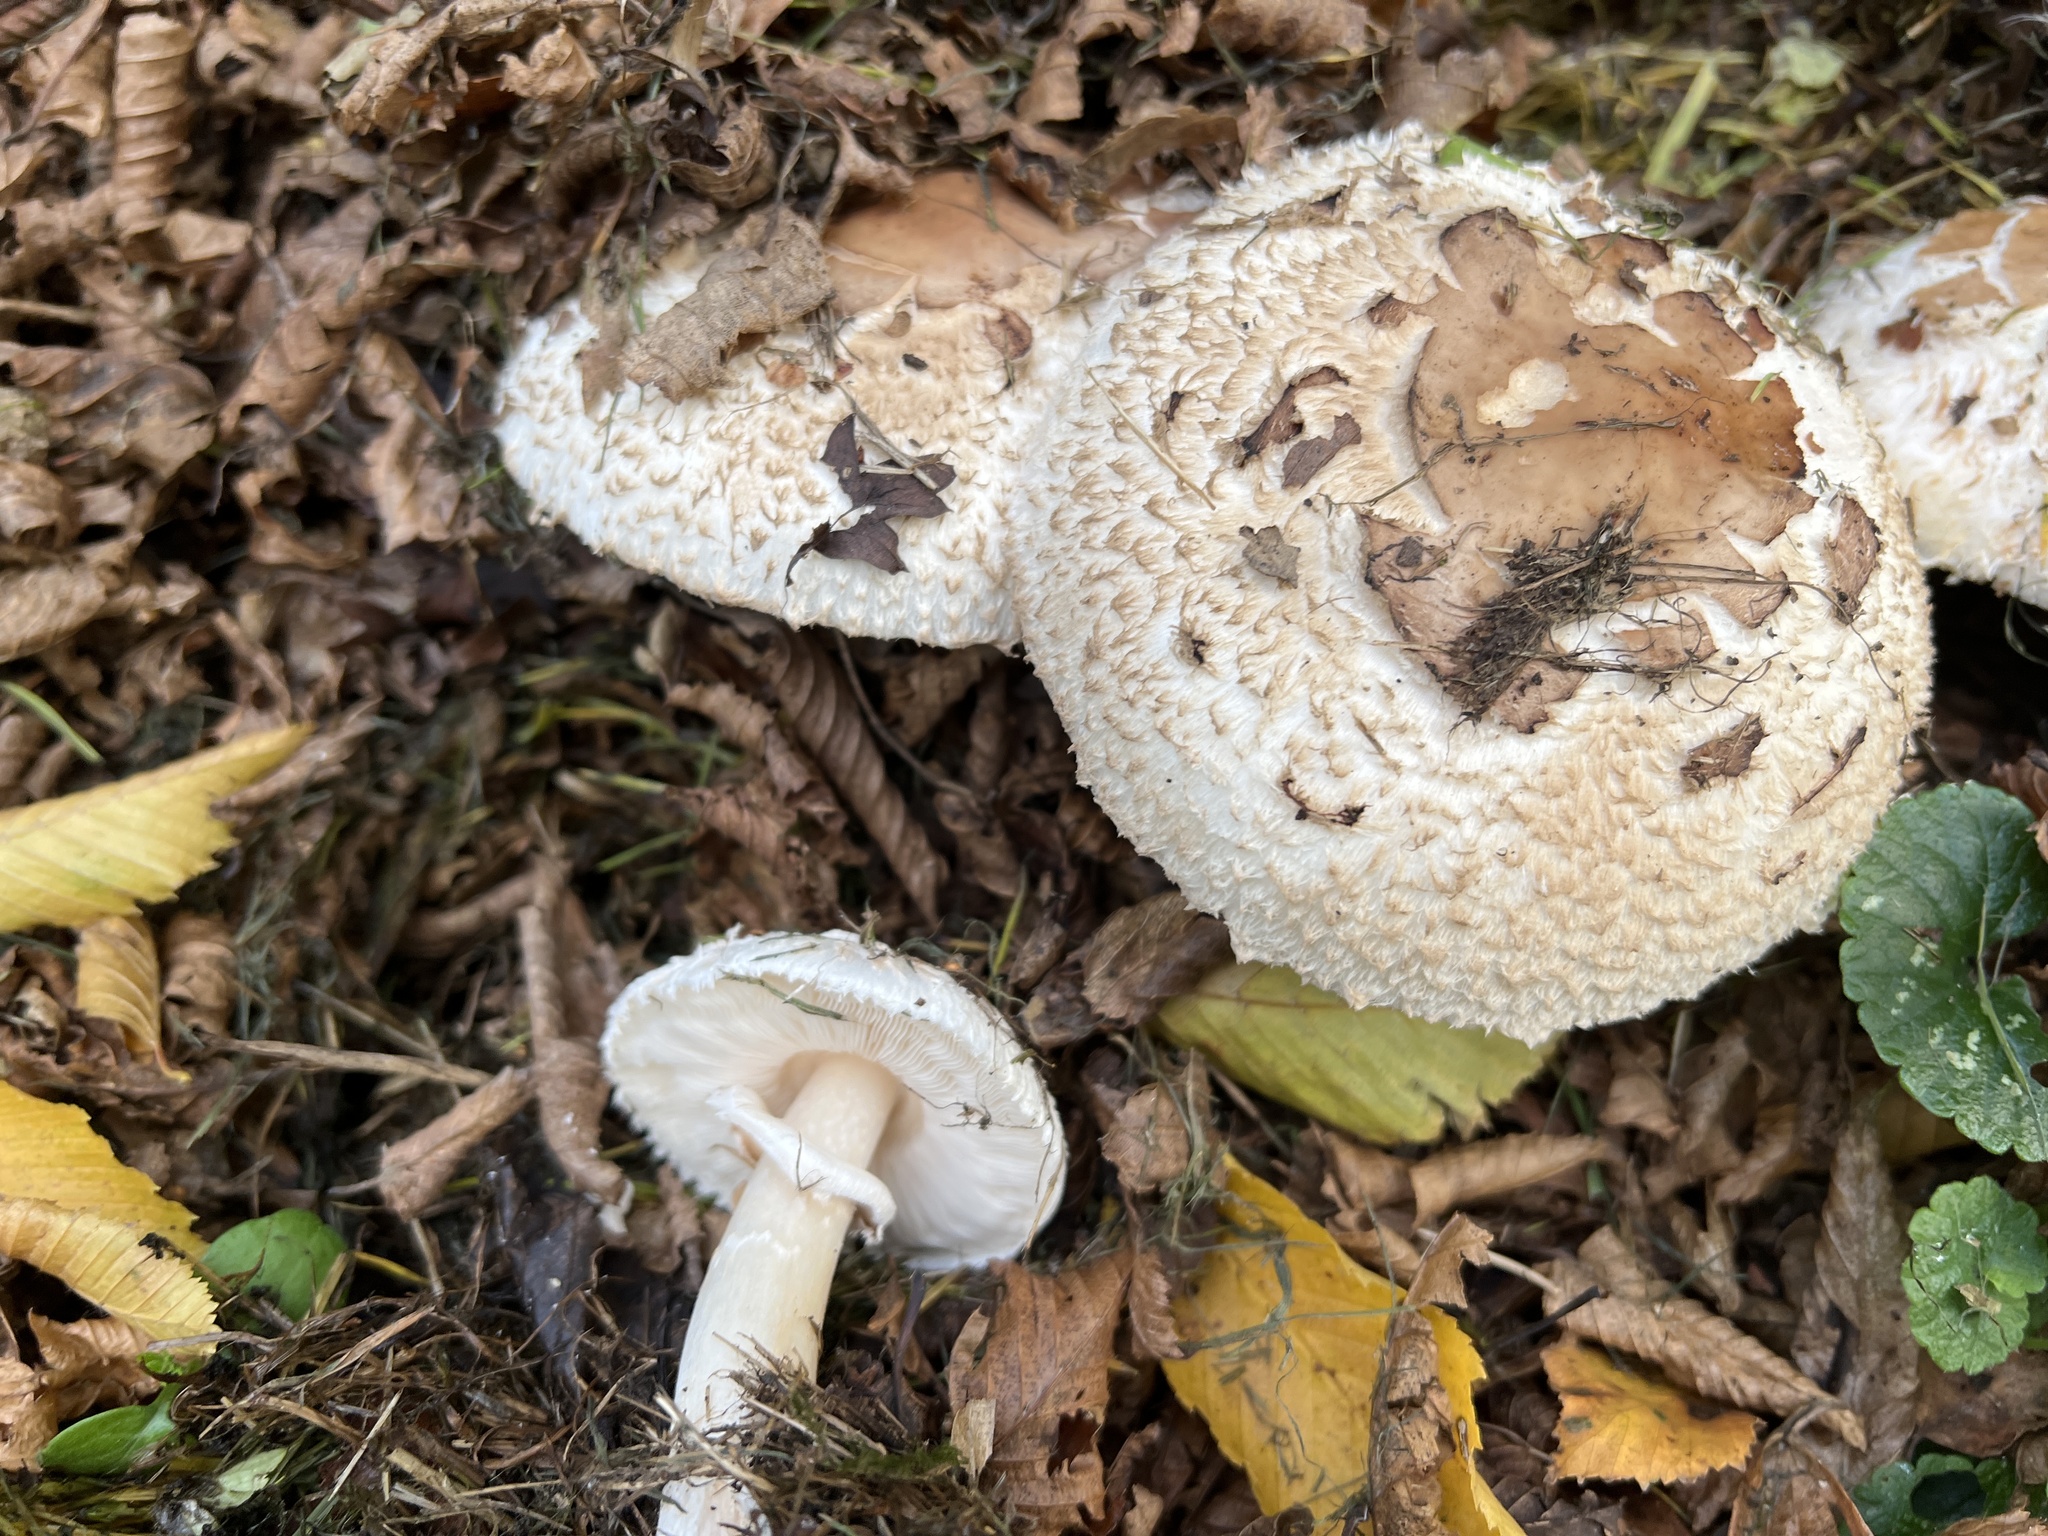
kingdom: Fungi
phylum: Basidiomycota
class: Agaricomycetes
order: Agaricales
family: Agaricaceae
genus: Chlorophyllum
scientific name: Chlorophyllum rhacodes
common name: Shaggy parasol
